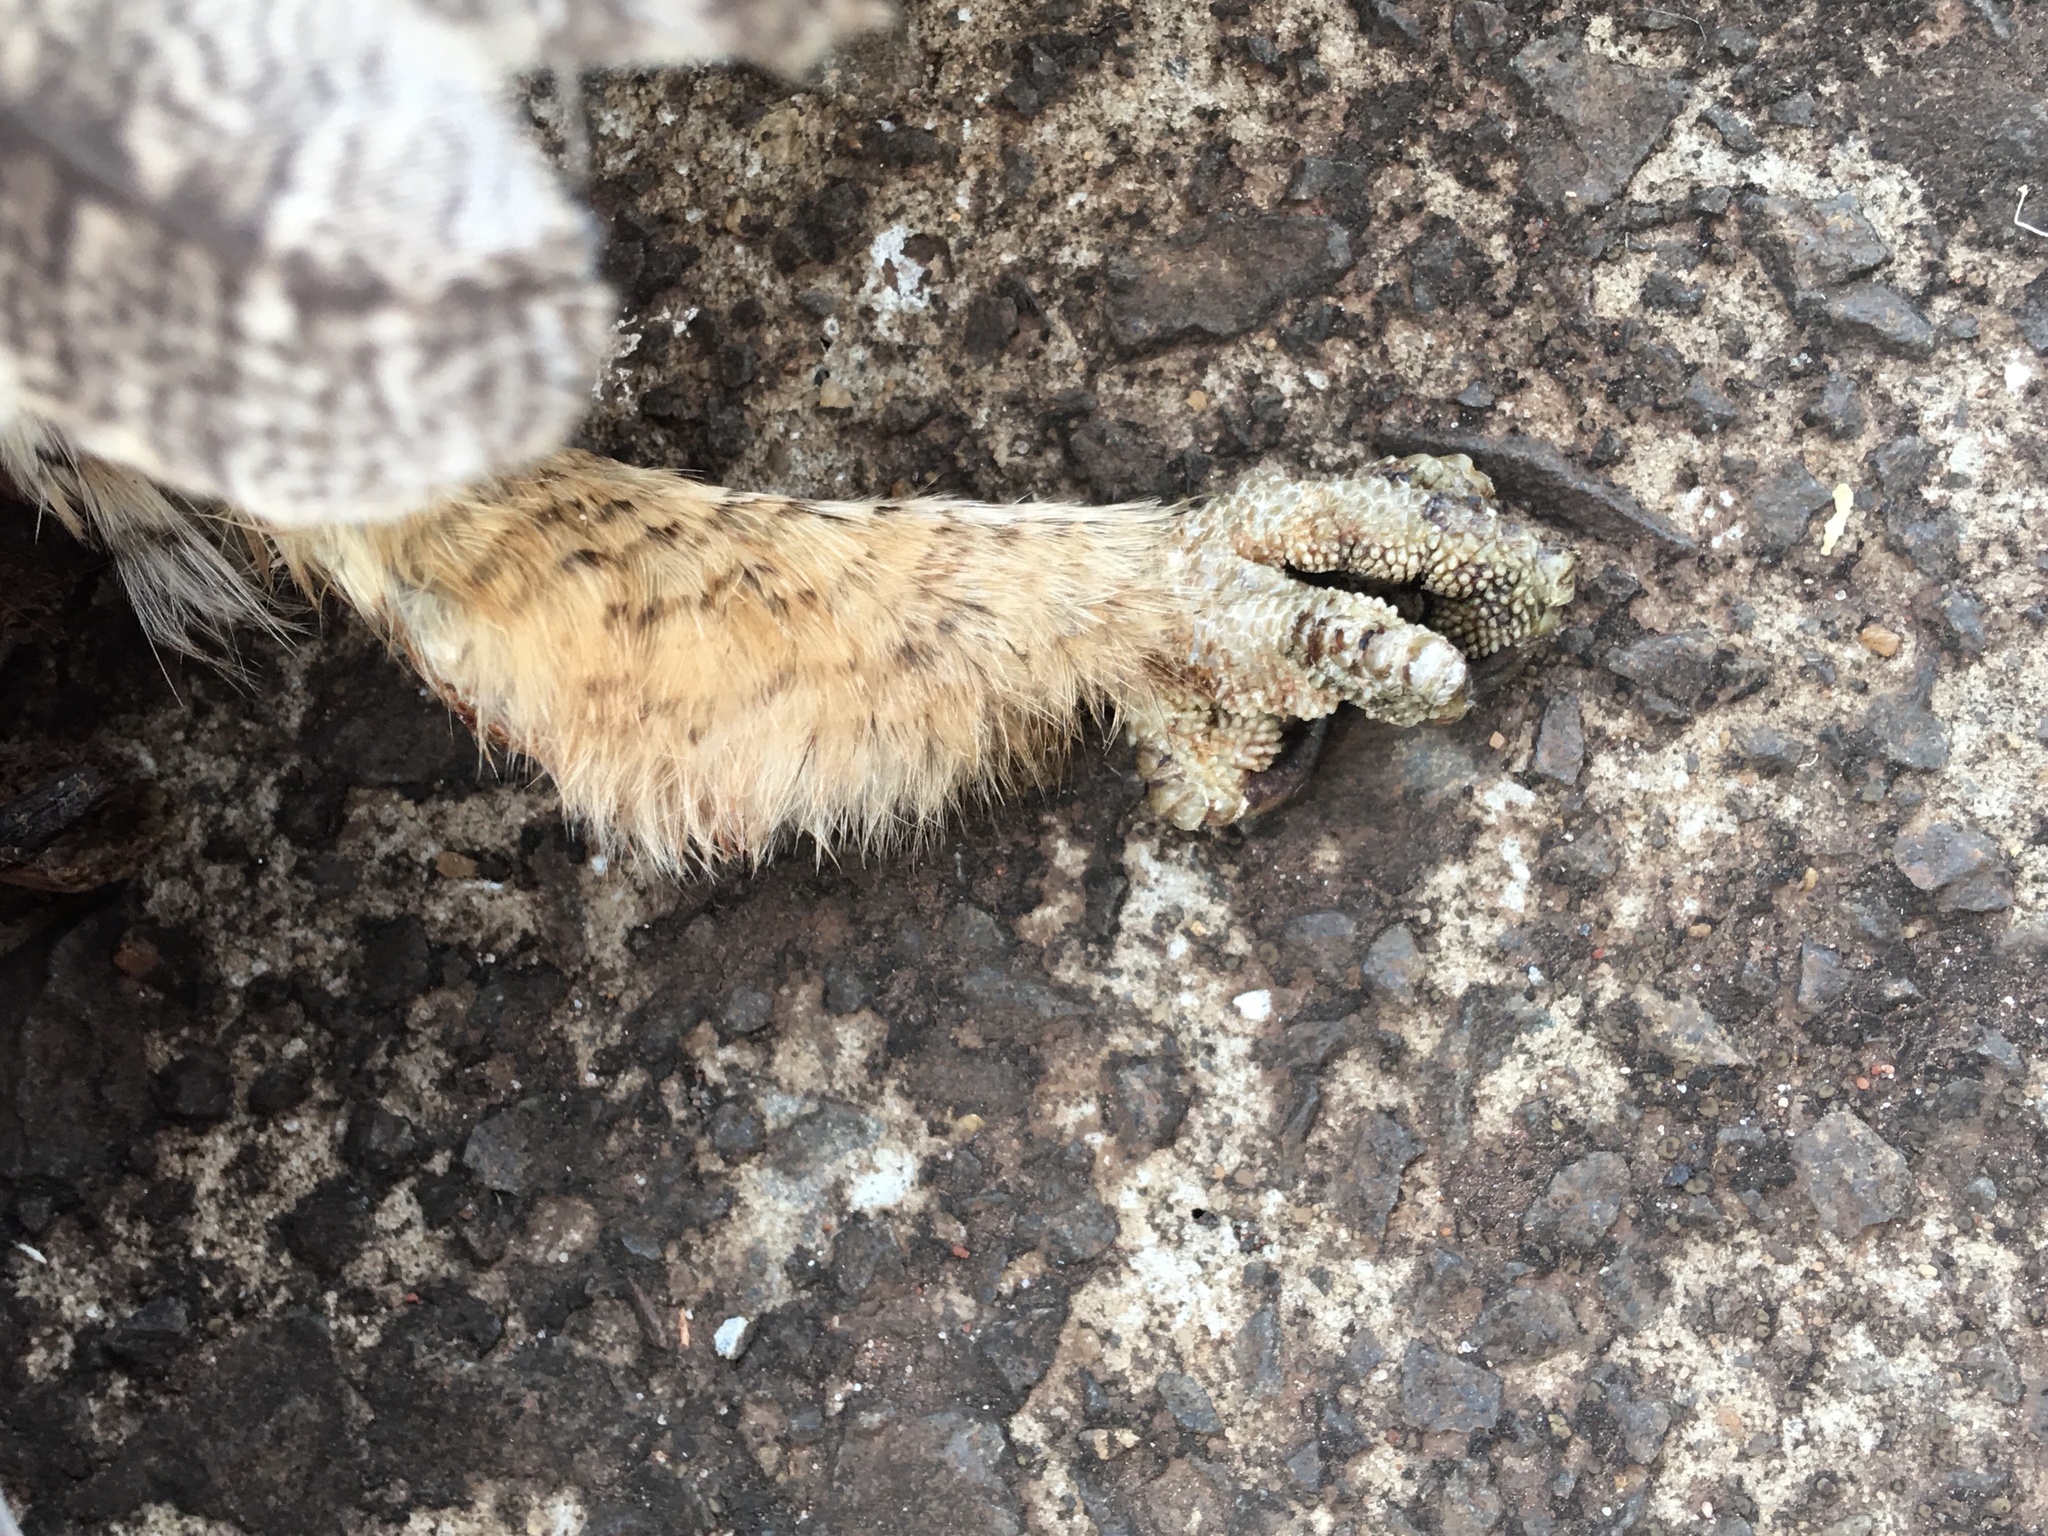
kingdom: Animalia
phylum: Chordata
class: Aves
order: Strigiformes
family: Strigidae
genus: Megascops
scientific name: Megascops choliba
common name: Tropical screech-owl
